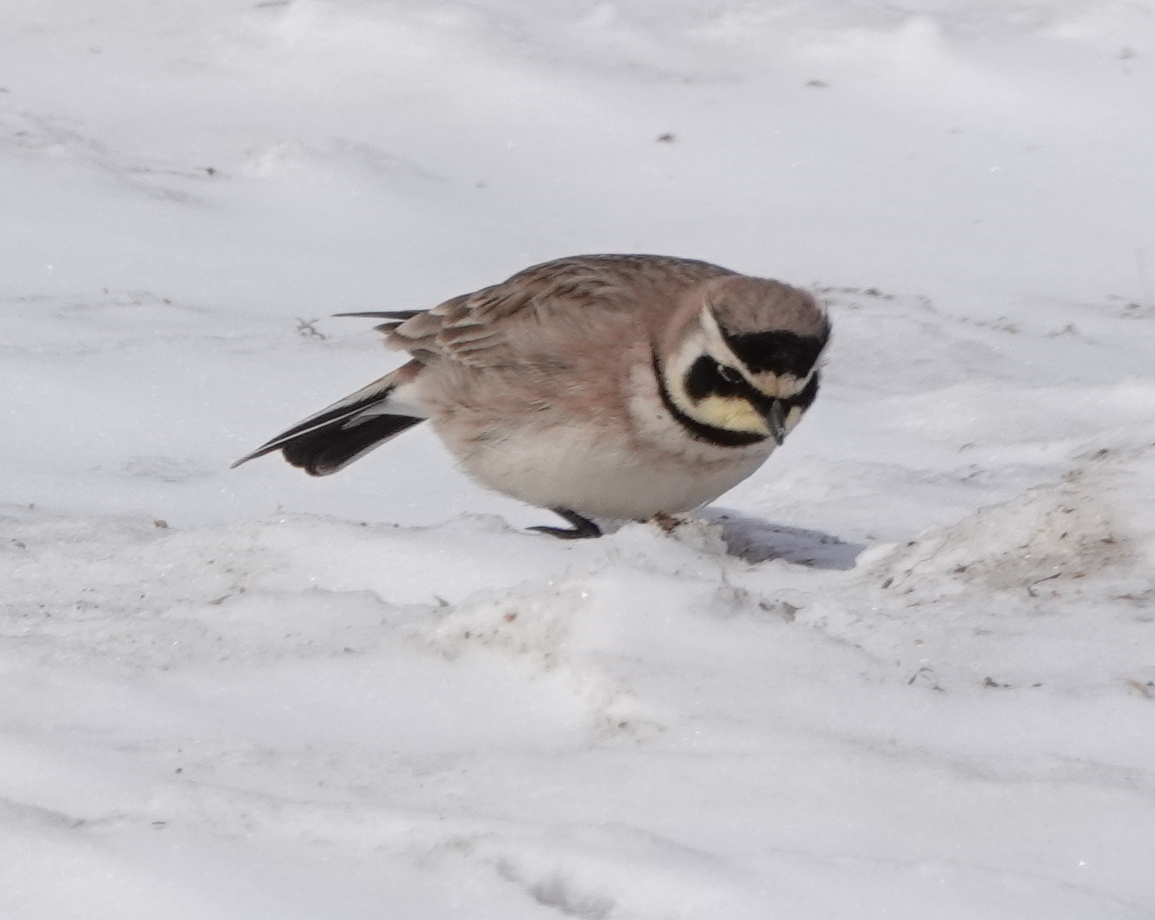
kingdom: Animalia
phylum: Chordata
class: Aves
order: Passeriformes
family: Alaudidae
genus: Eremophila
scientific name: Eremophila alpestris
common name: Horned lark
